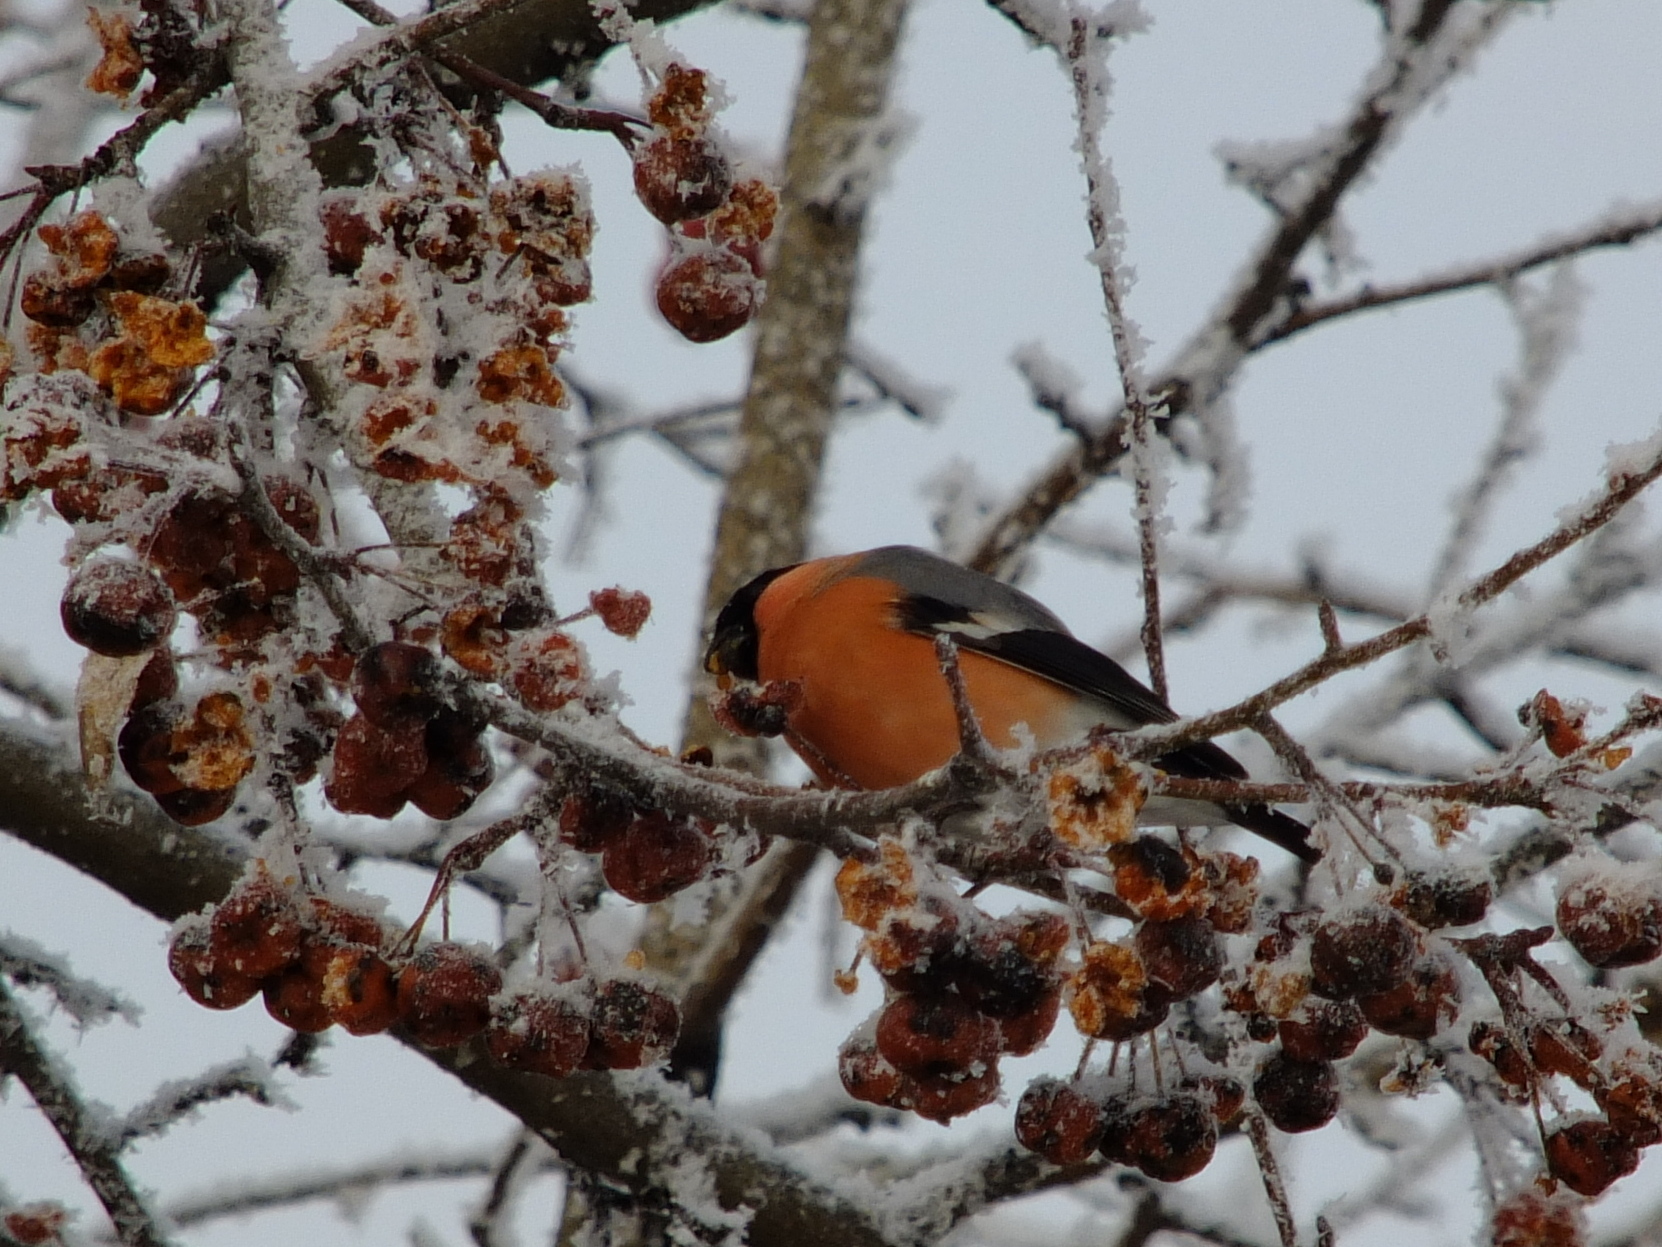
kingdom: Animalia
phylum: Chordata
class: Aves
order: Passeriformes
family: Fringillidae
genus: Pyrrhula
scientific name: Pyrrhula pyrrhula
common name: Eurasian bullfinch
